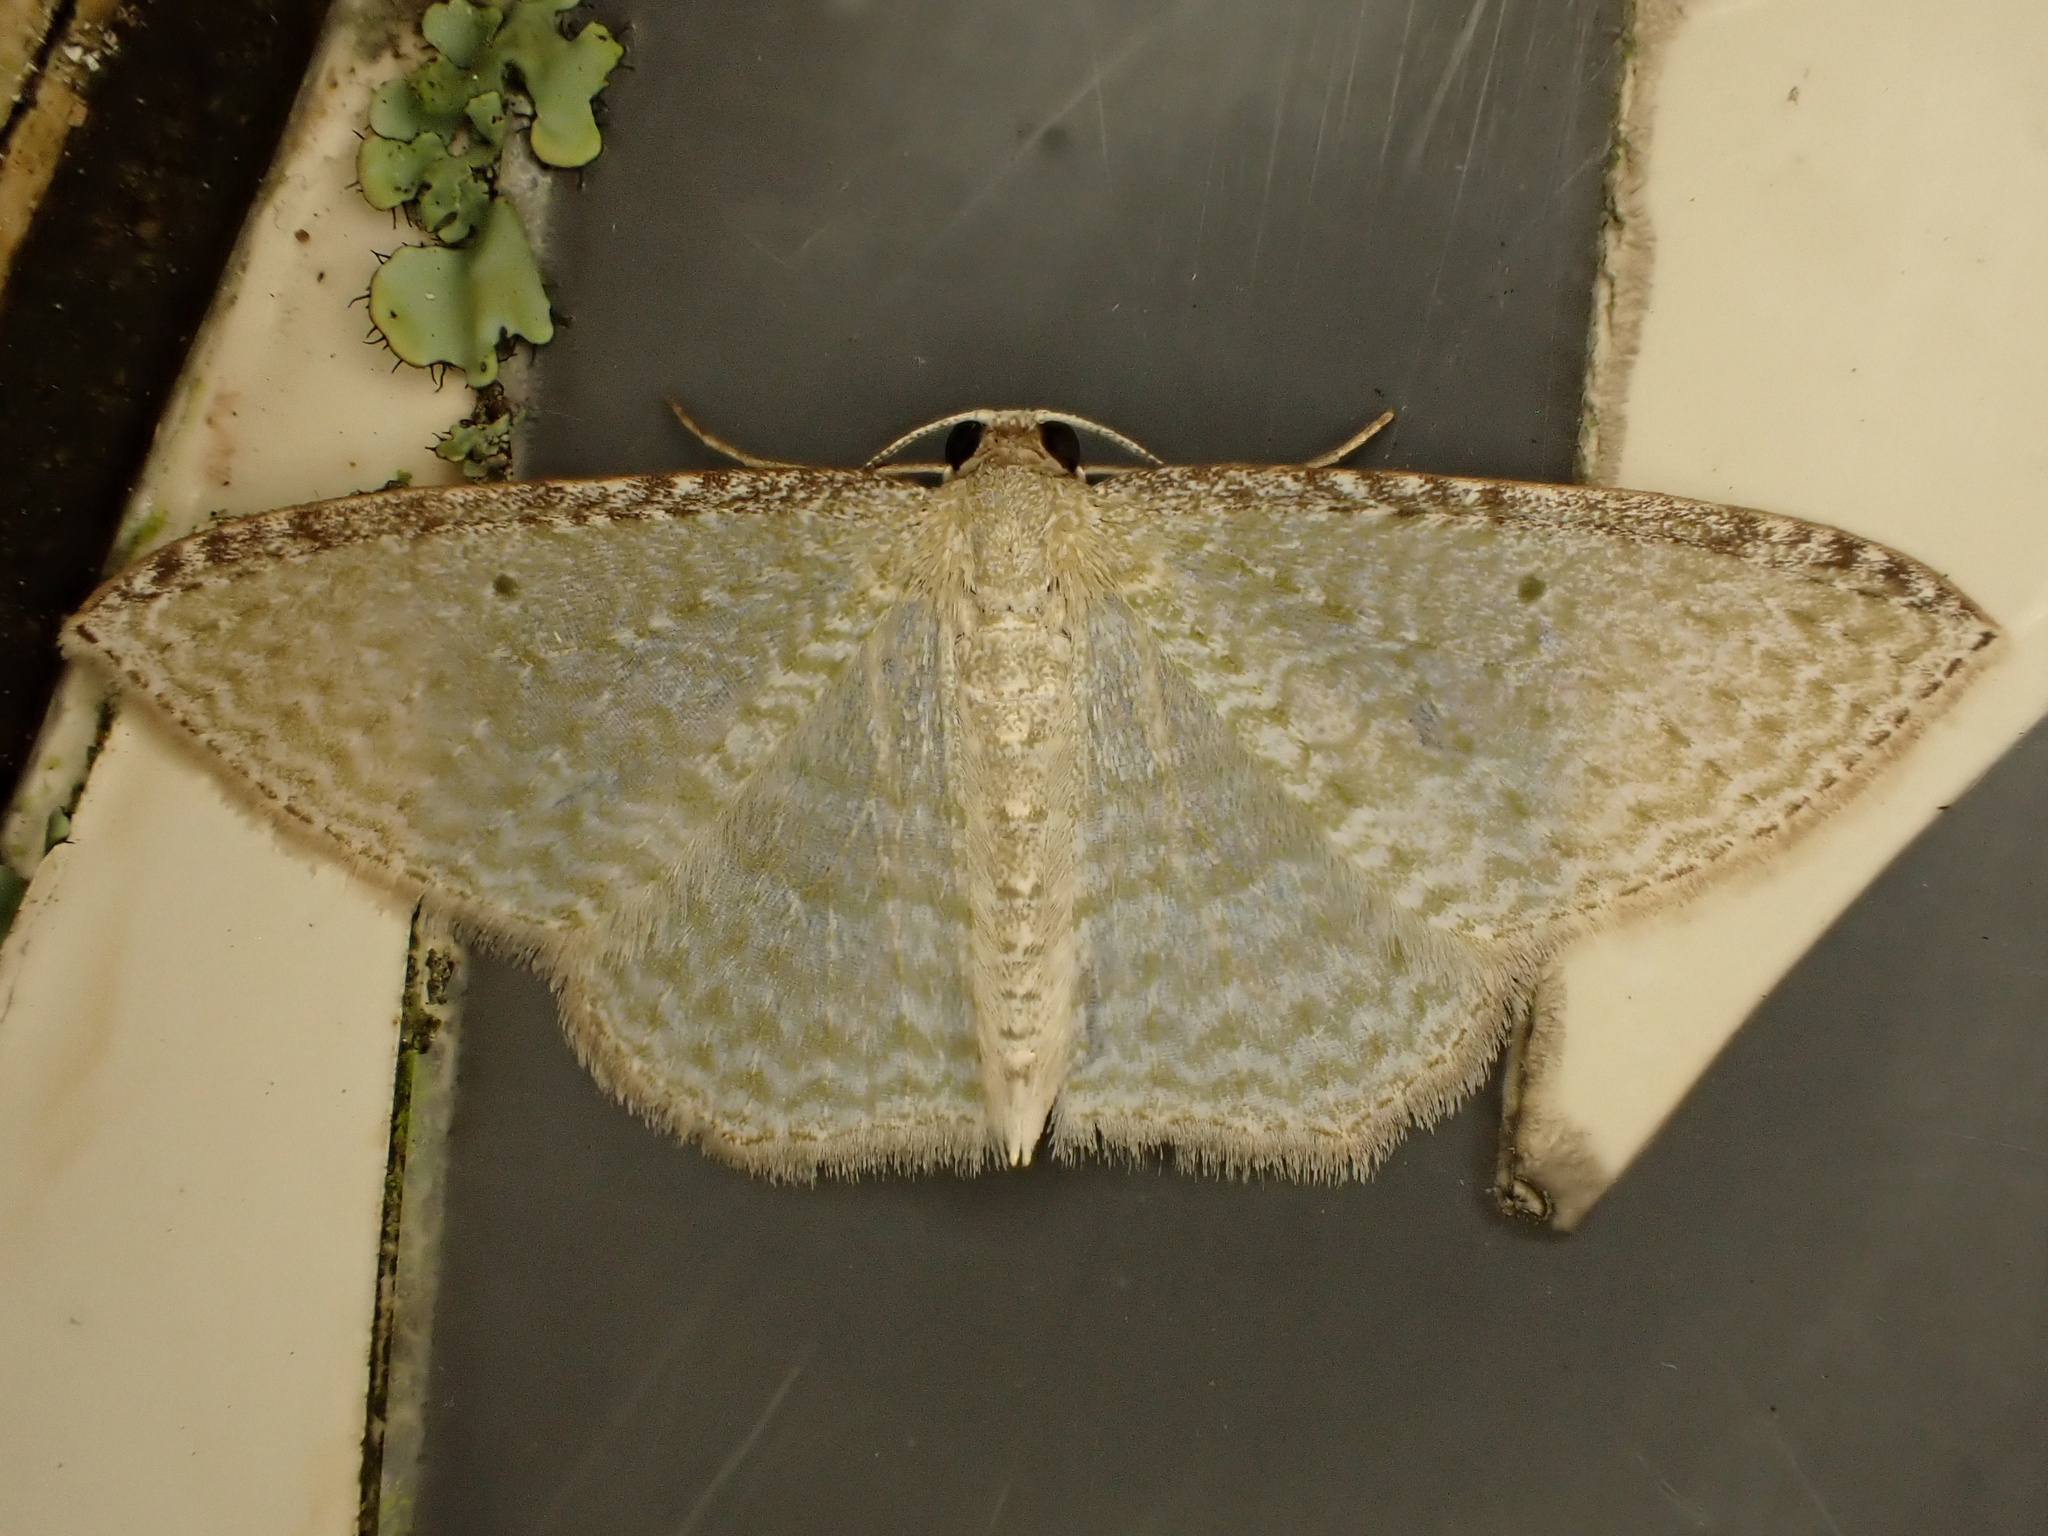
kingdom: Animalia
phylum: Arthropoda
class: Insecta
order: Lepidoptera
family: Geometridae
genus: Poecilasthena
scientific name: Poecilasthena pulchraria
